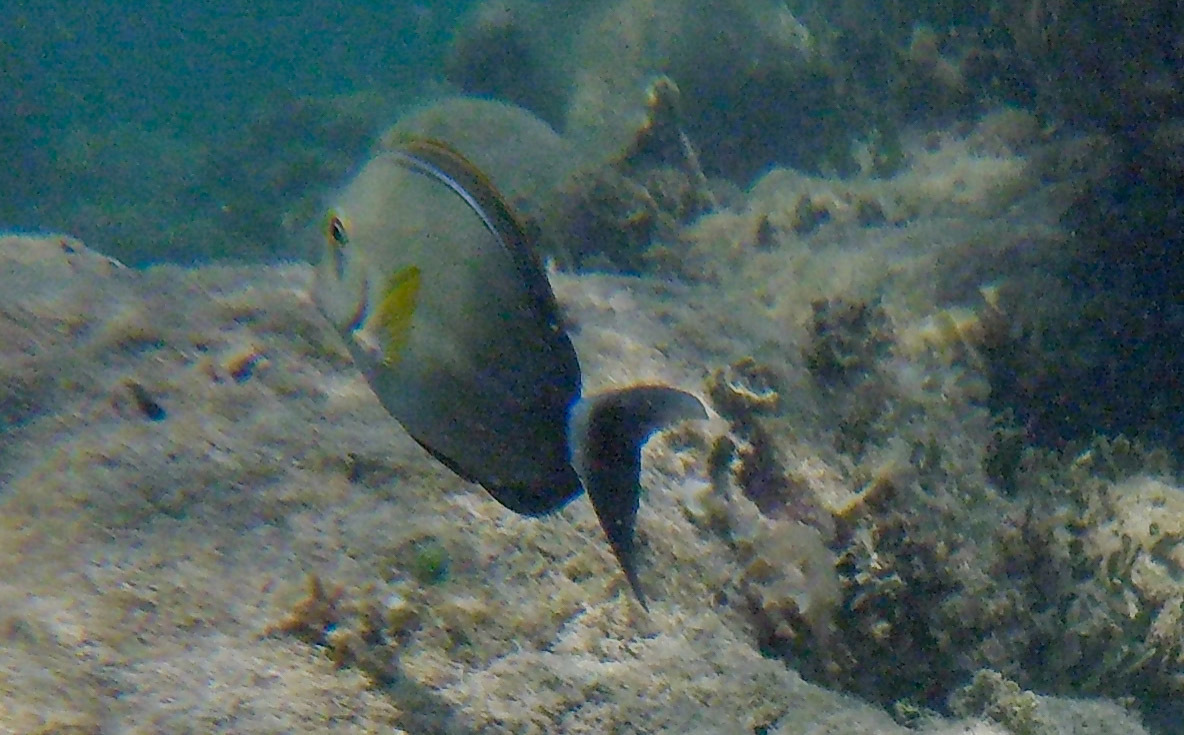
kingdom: Animalia
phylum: Chordata
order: Perciformes
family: Acanthuridae
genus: Acanthurus
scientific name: Acanthurus xanthopterus
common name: Cuvier's surgeonfish
